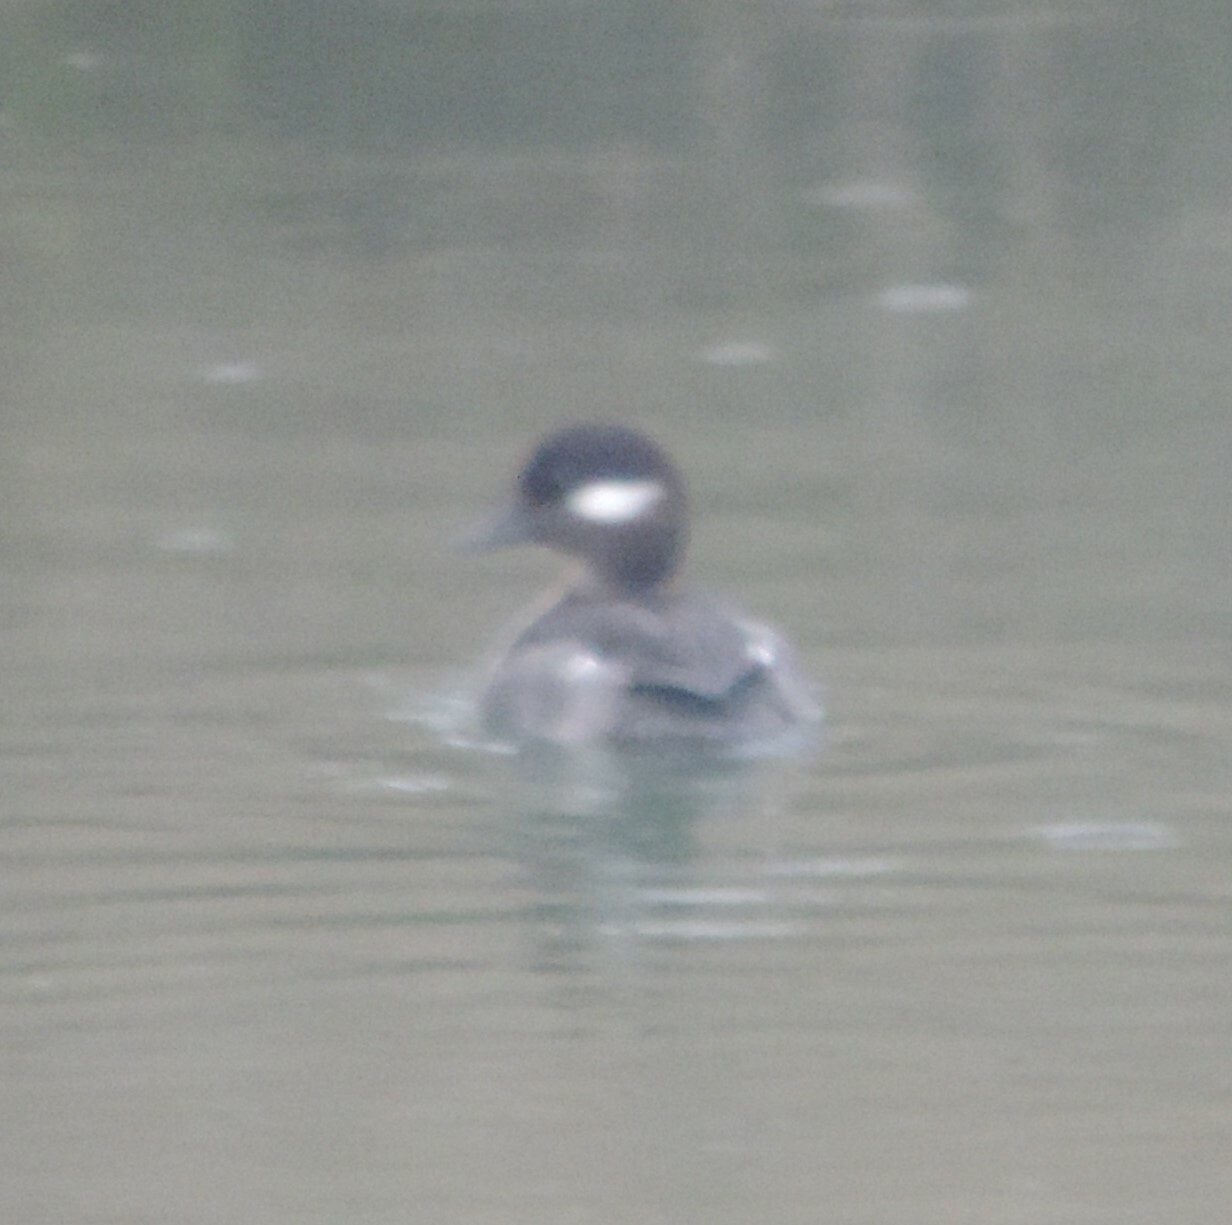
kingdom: Animalia
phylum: Chordata
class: Aves
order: Anseriformes
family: Anatidae
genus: Bucephala
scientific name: Bucephala albeola
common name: Bufflehead
